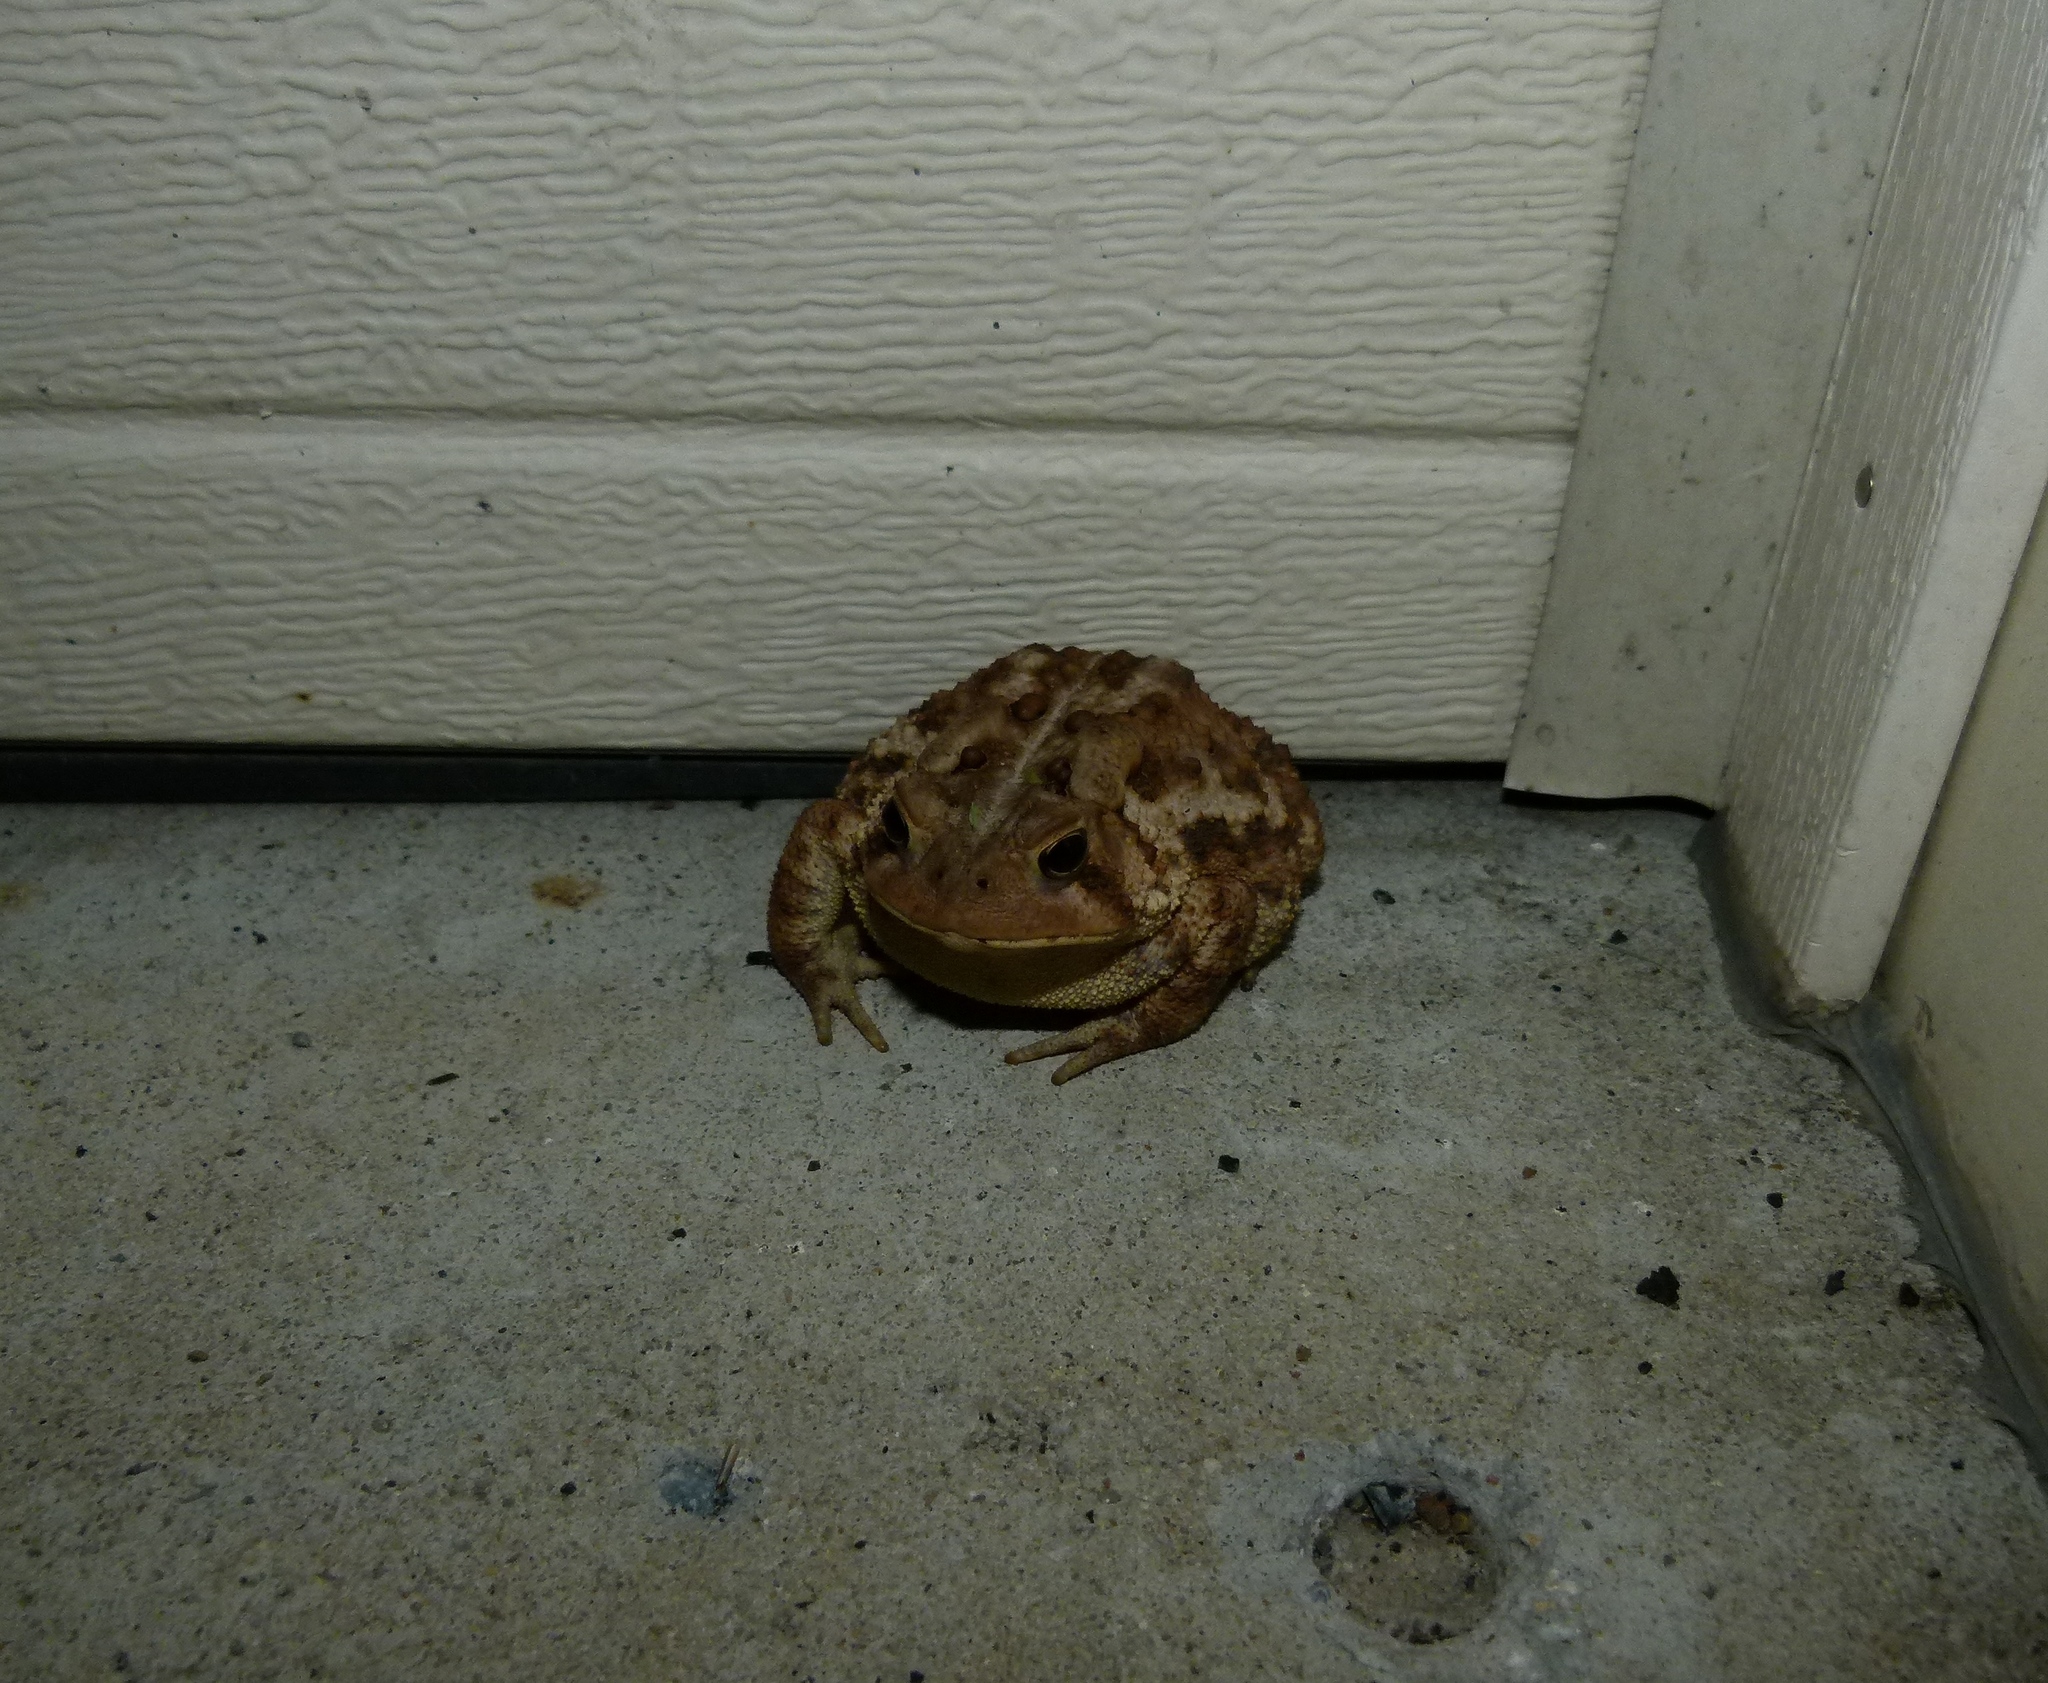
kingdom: Animalia
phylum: Chordata
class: Amphibia
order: Anura
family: Bufonidae
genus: Anaxyrus
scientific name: Anaxyrus americanus
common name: American toad
